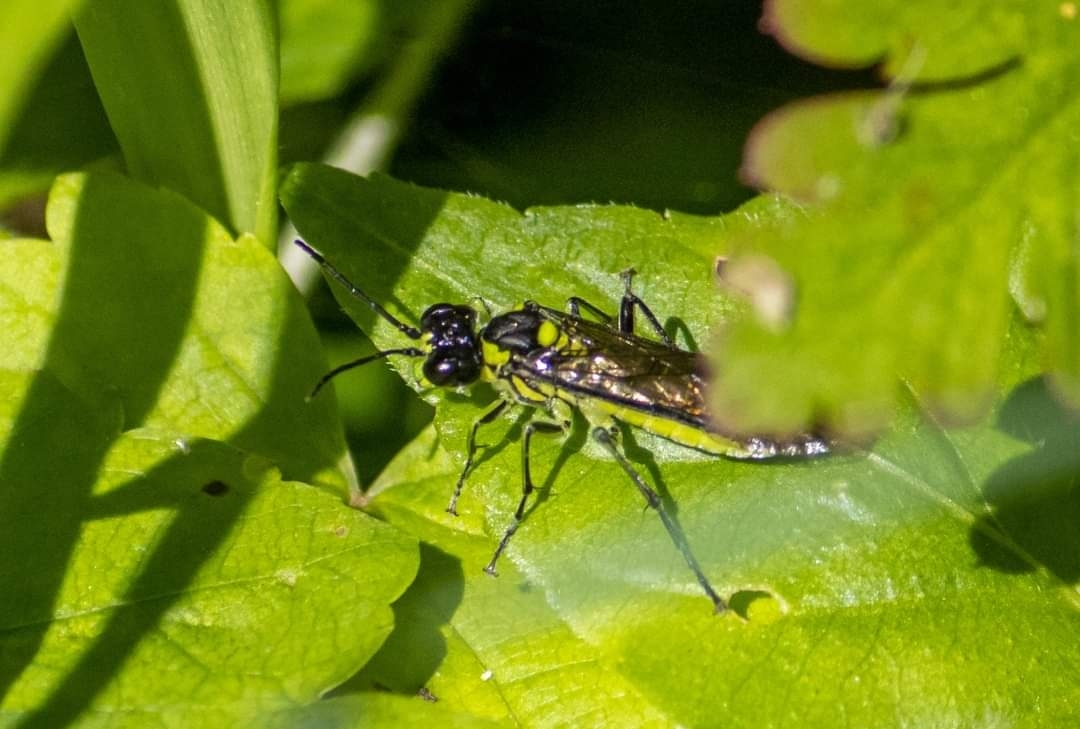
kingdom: Animalia
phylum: Arthropoda
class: Insecta
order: Hymenoptera
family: Tenthredinidae
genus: Tenthredo
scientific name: Tenthredo mesomela
